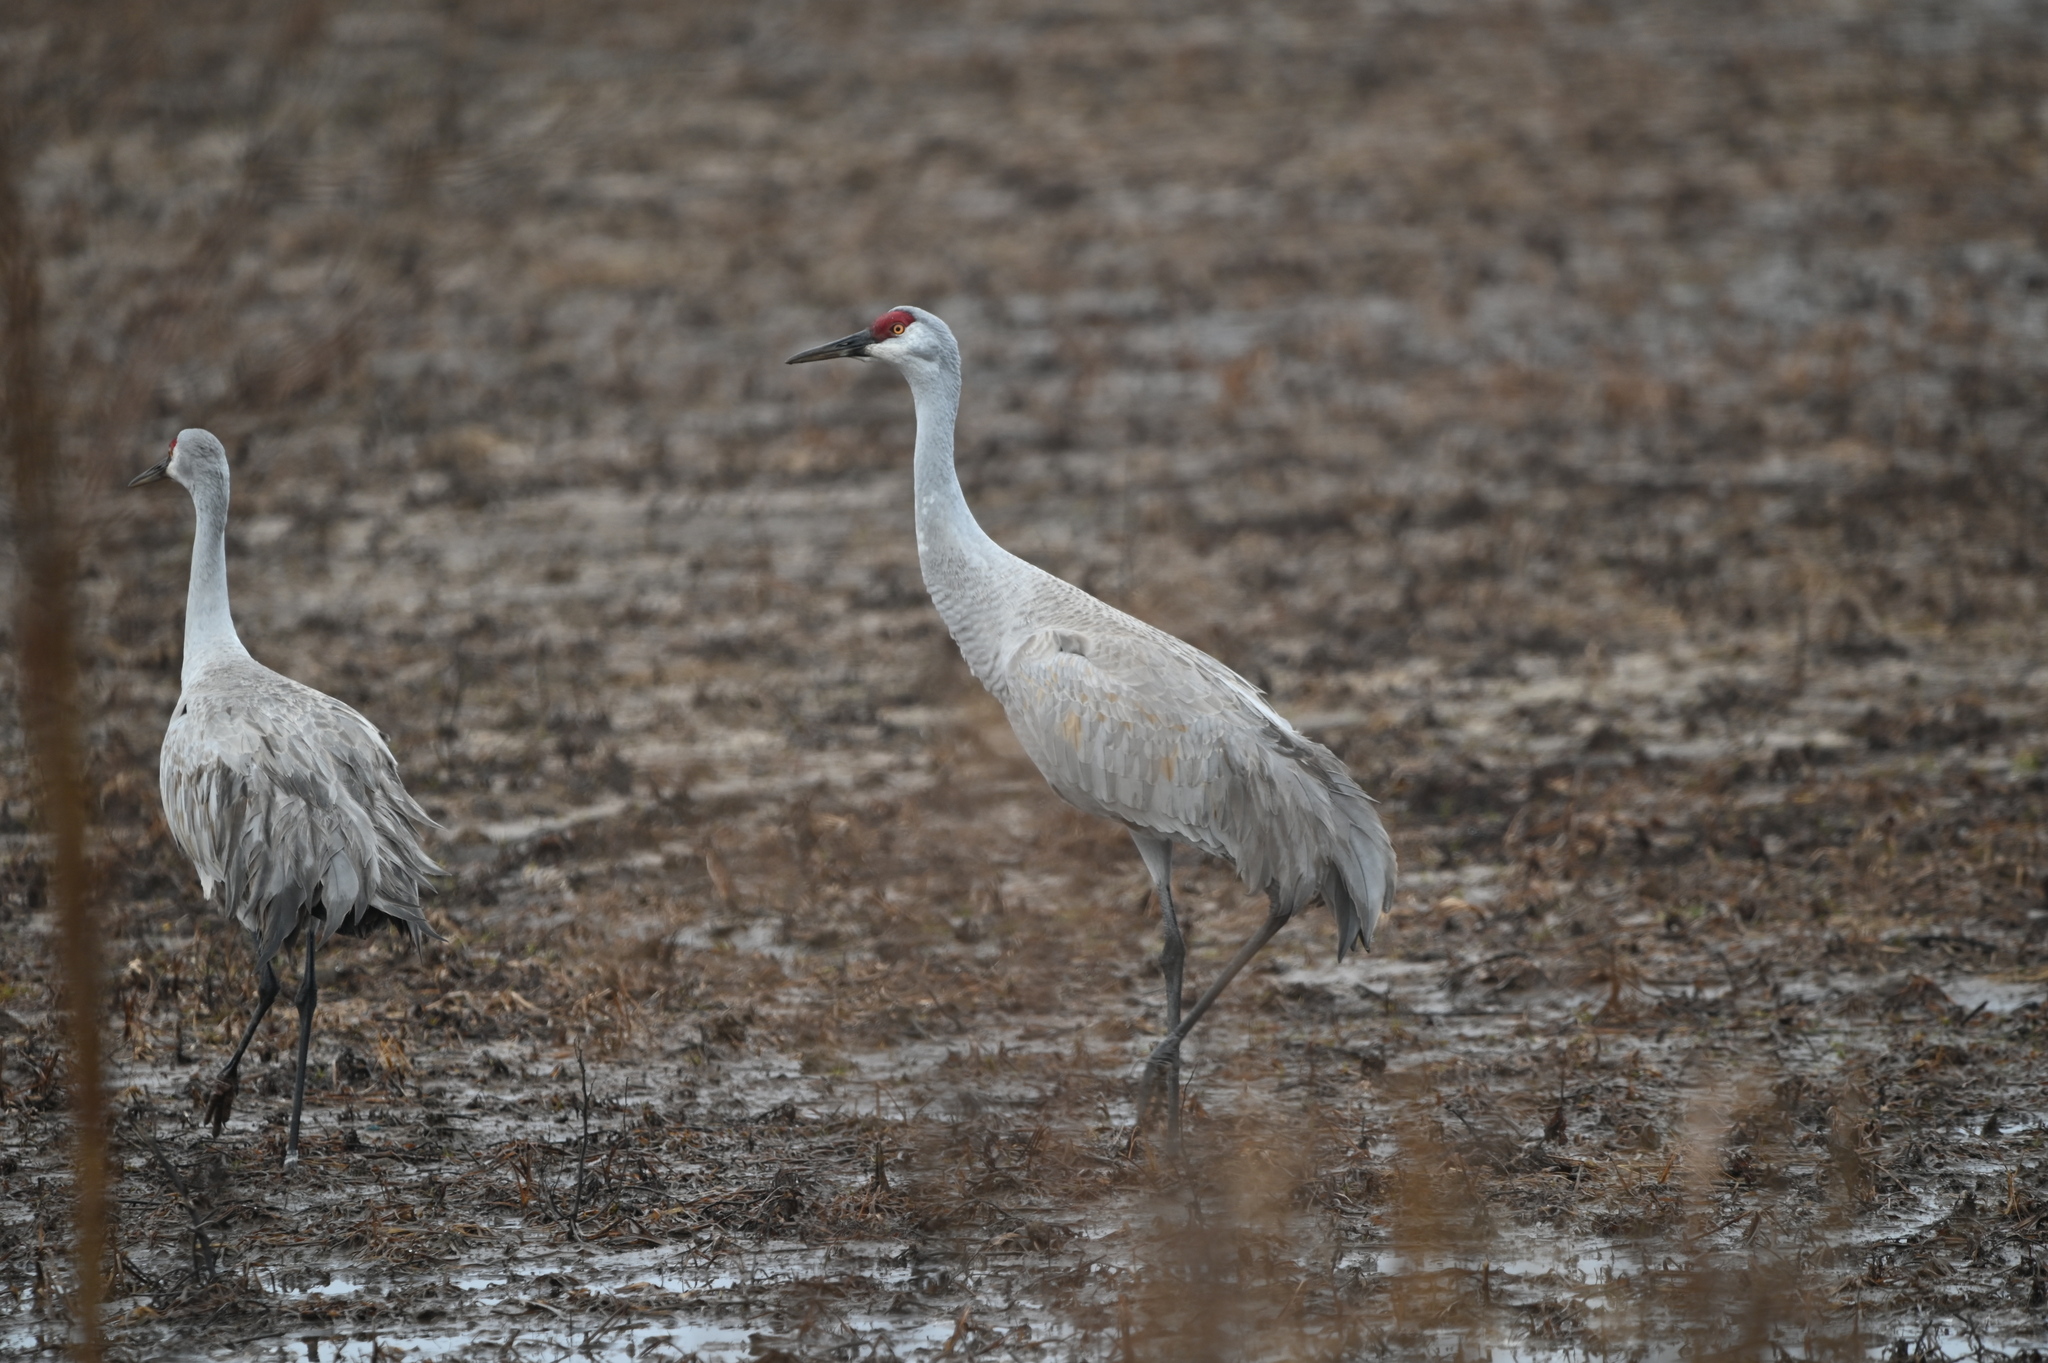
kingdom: Animalia
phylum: Chordata
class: Aves
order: Gruiformes
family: Gruidae
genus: Grus
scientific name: Grus canadensis
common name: Sandhill crane
